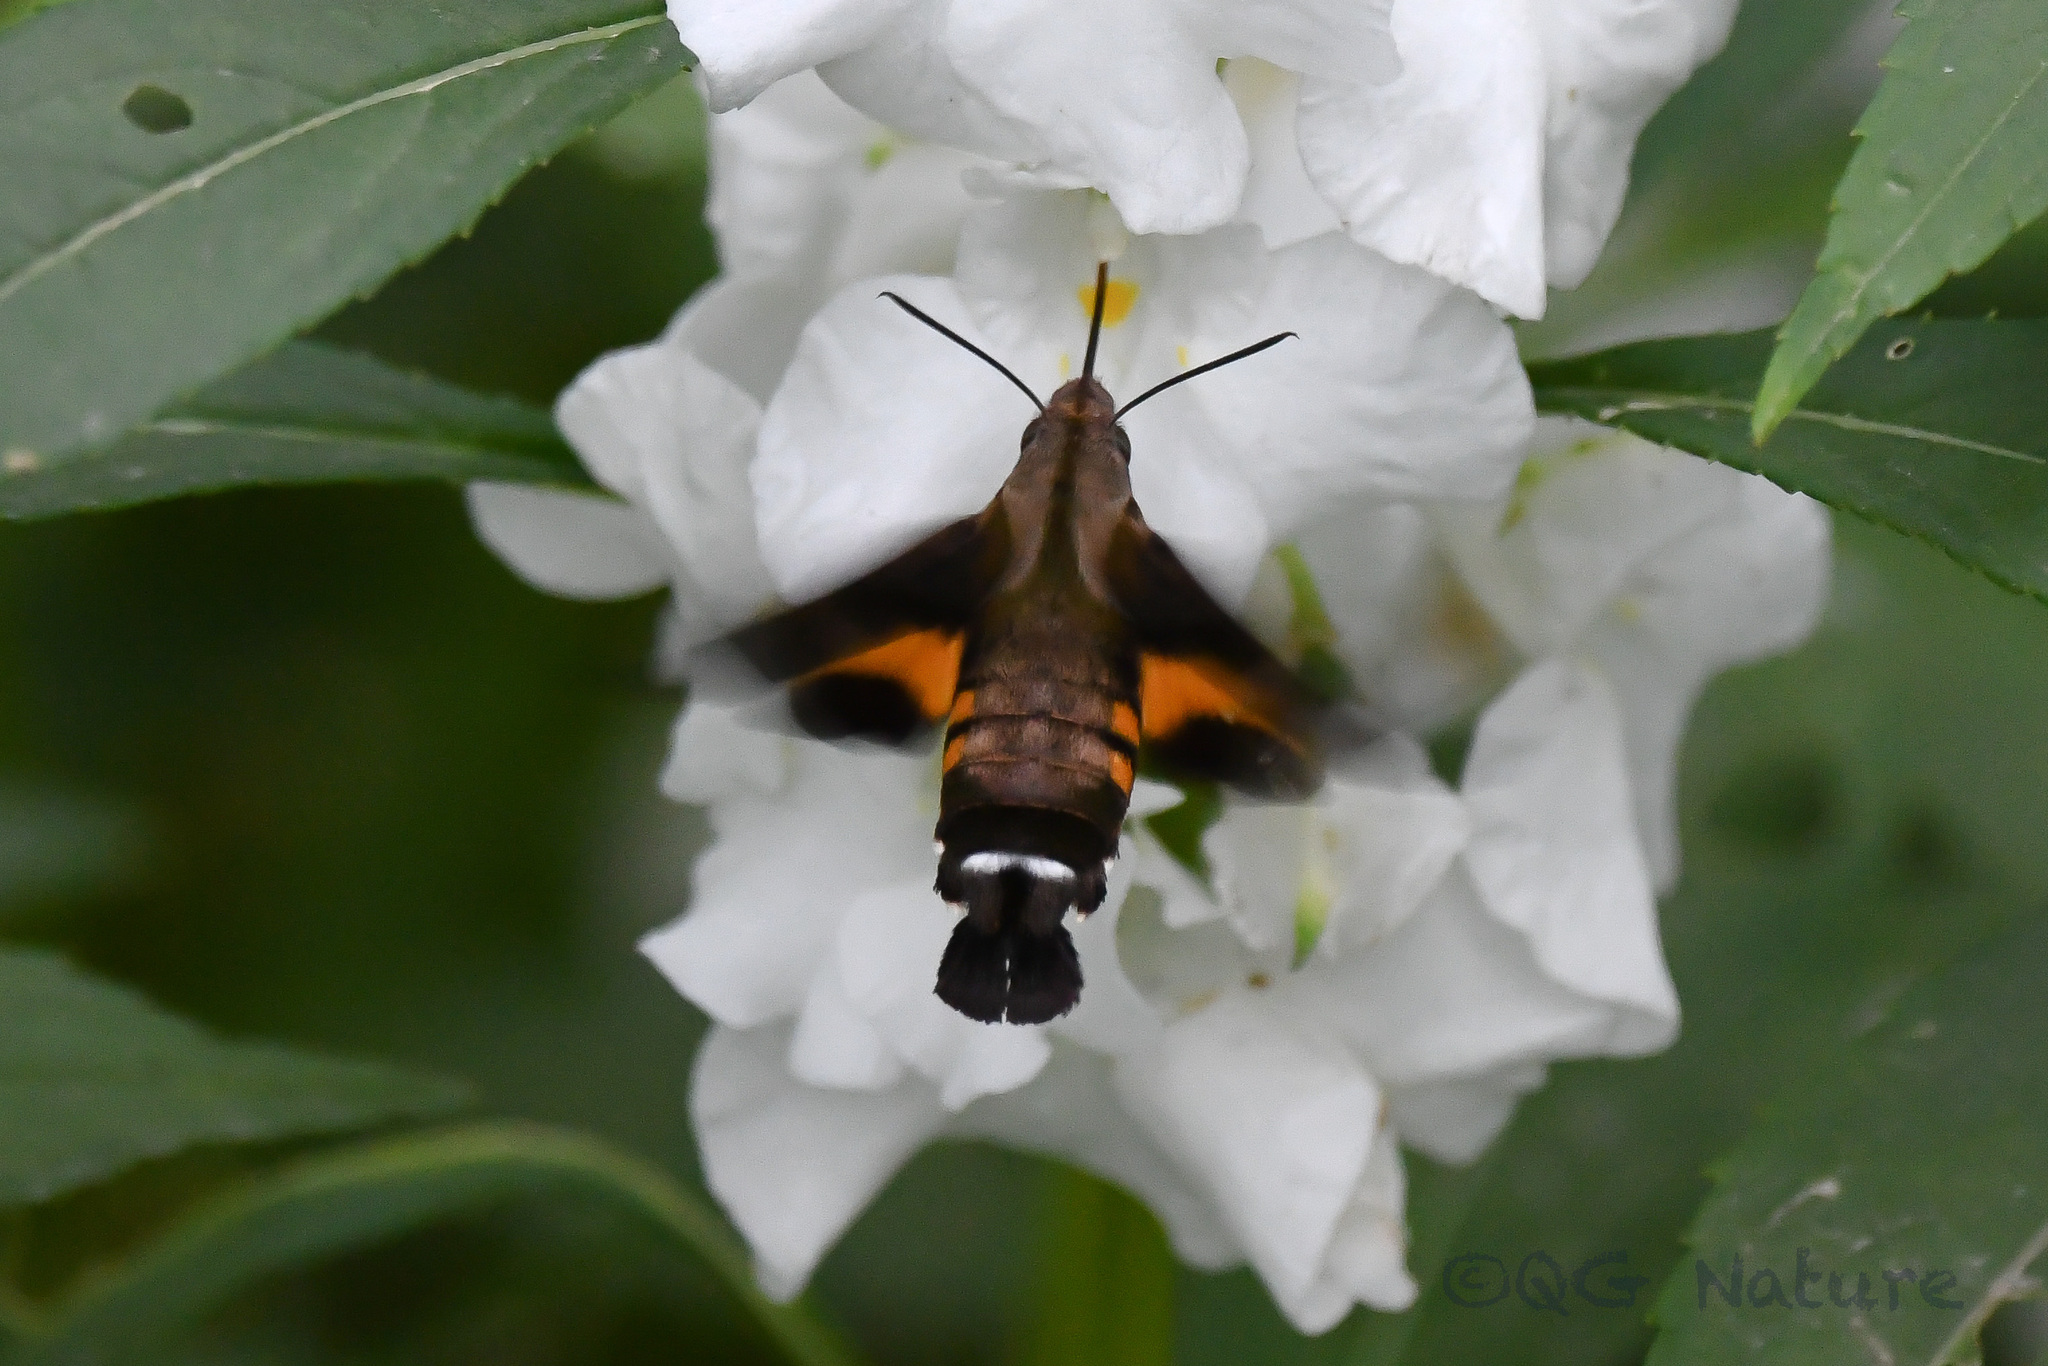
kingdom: Animalia
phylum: Arthropoda
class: Insecta
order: Lepidoptera
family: Sphingidae
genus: Macroglossum
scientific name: Macroglossum pyrrhosticta
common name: Hummingbird hawk moth
